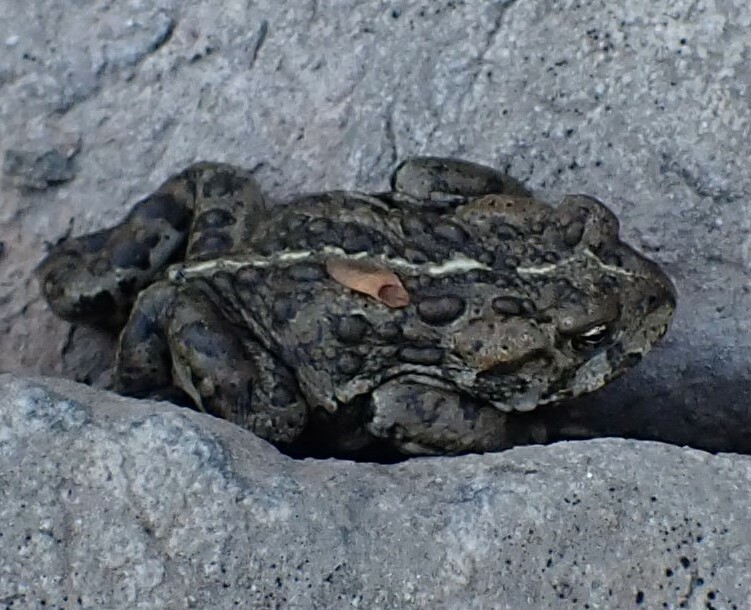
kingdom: Animalia
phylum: Chordata
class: Amphibia
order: Anura
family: Bufonidae
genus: Anaxyrus
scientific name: Anaxyrus boreas
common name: Western toad
